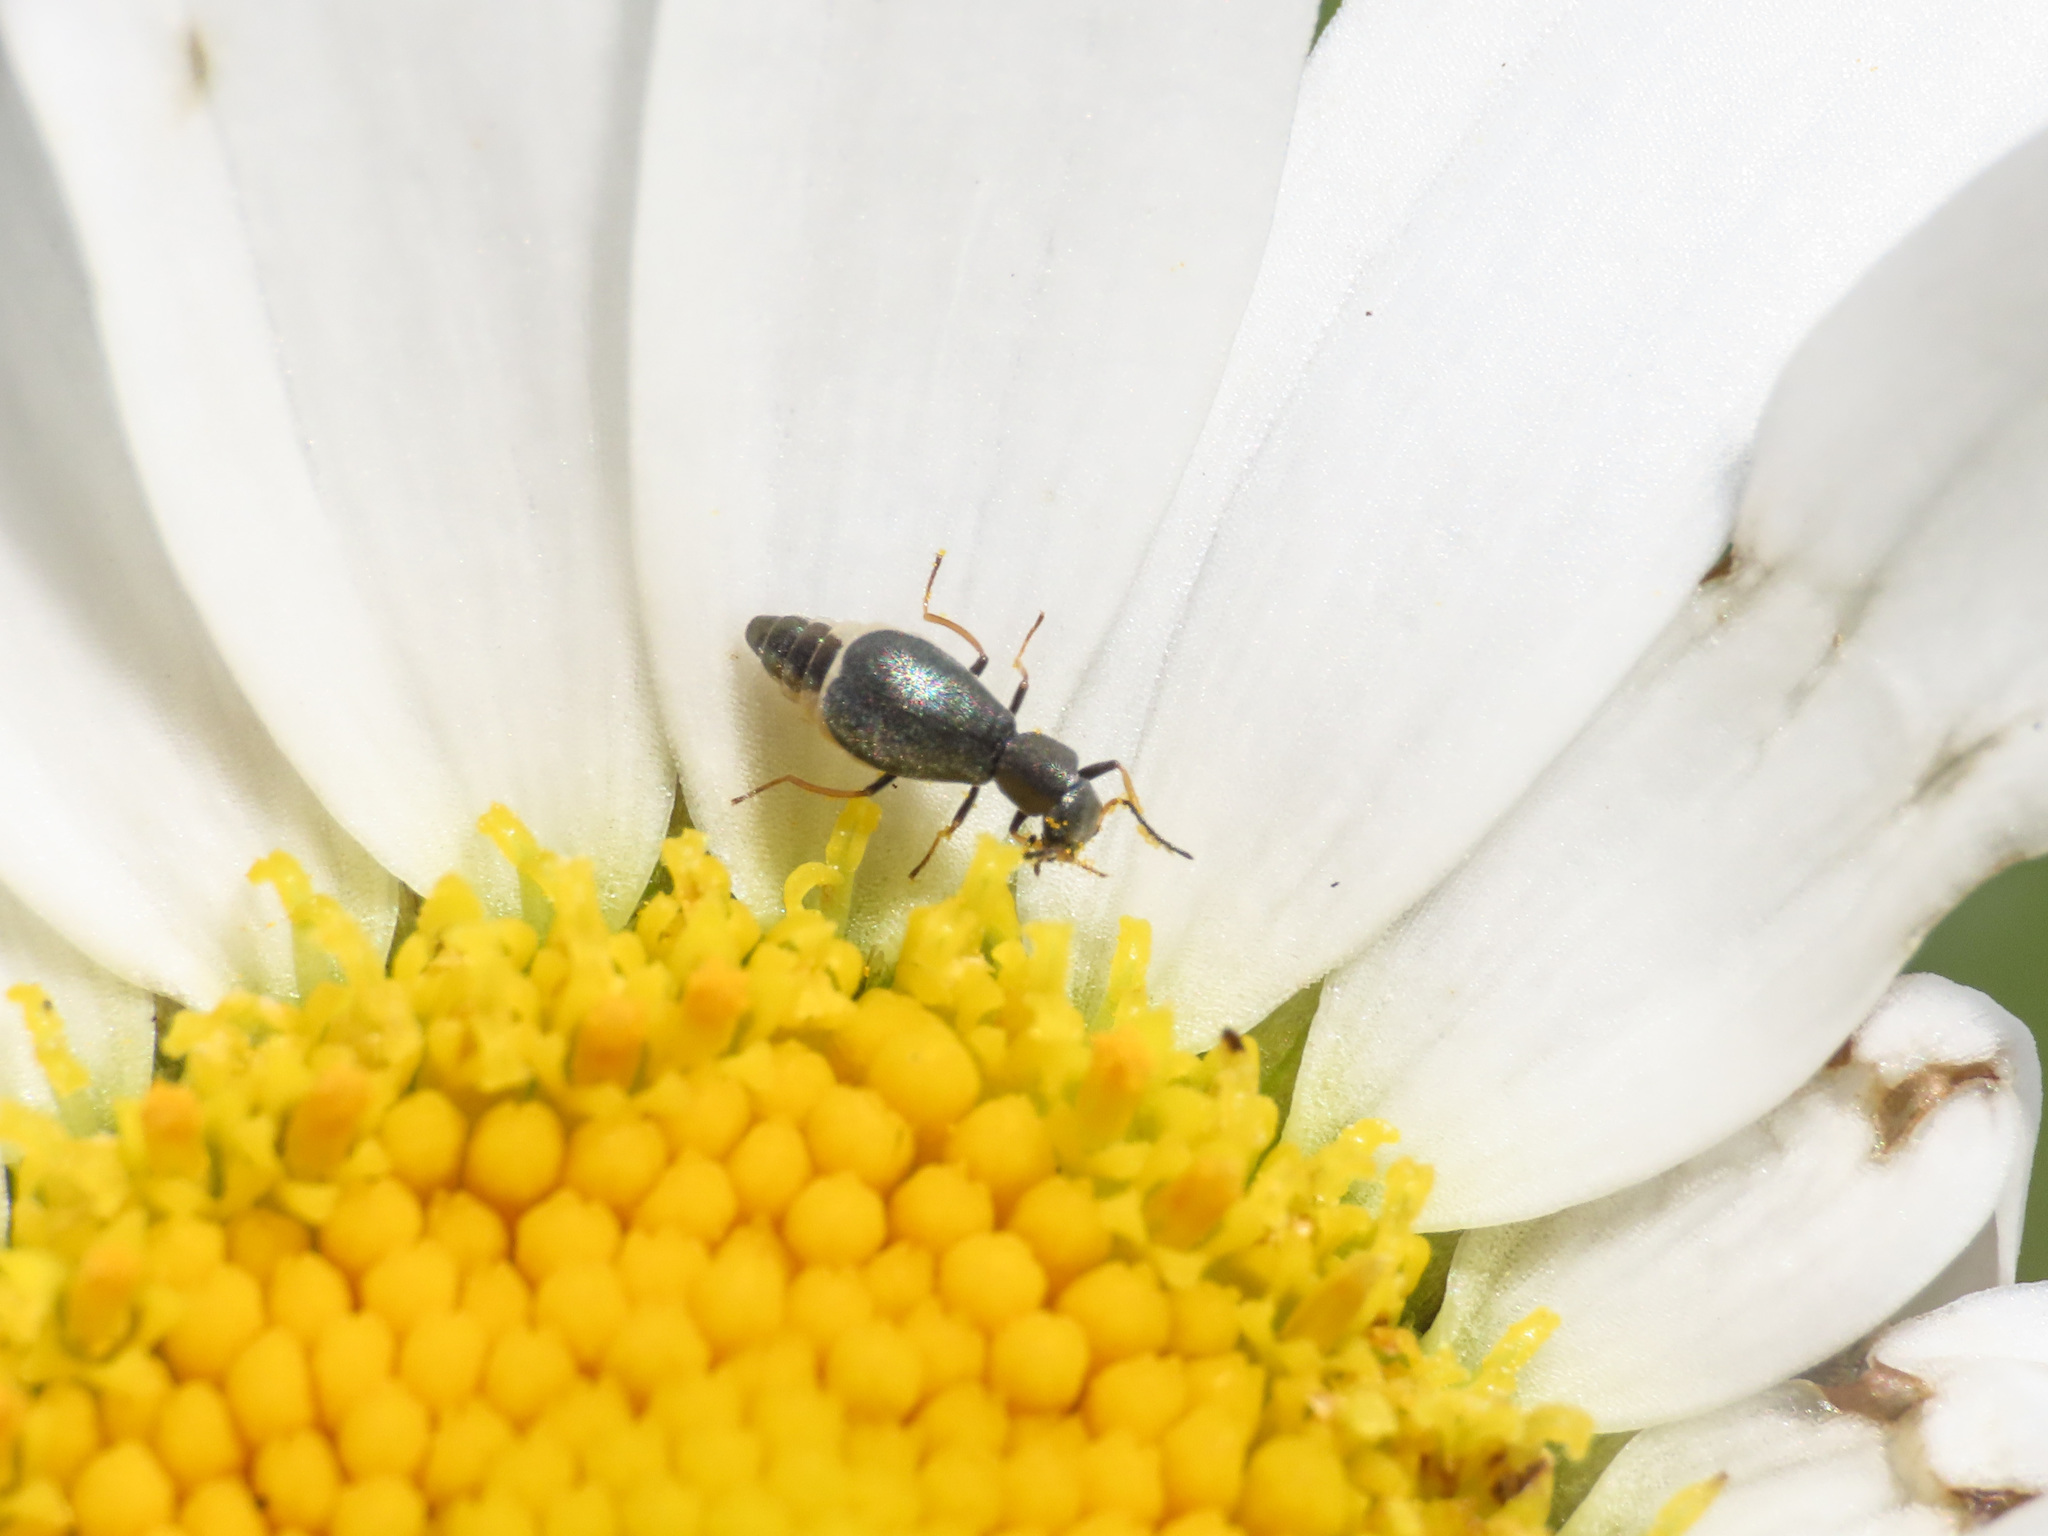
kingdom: Animalia
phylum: Arthropoda
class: Insecta
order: Coleoptera
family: Malachiidae
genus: Charopus
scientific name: Charopus pallipes
